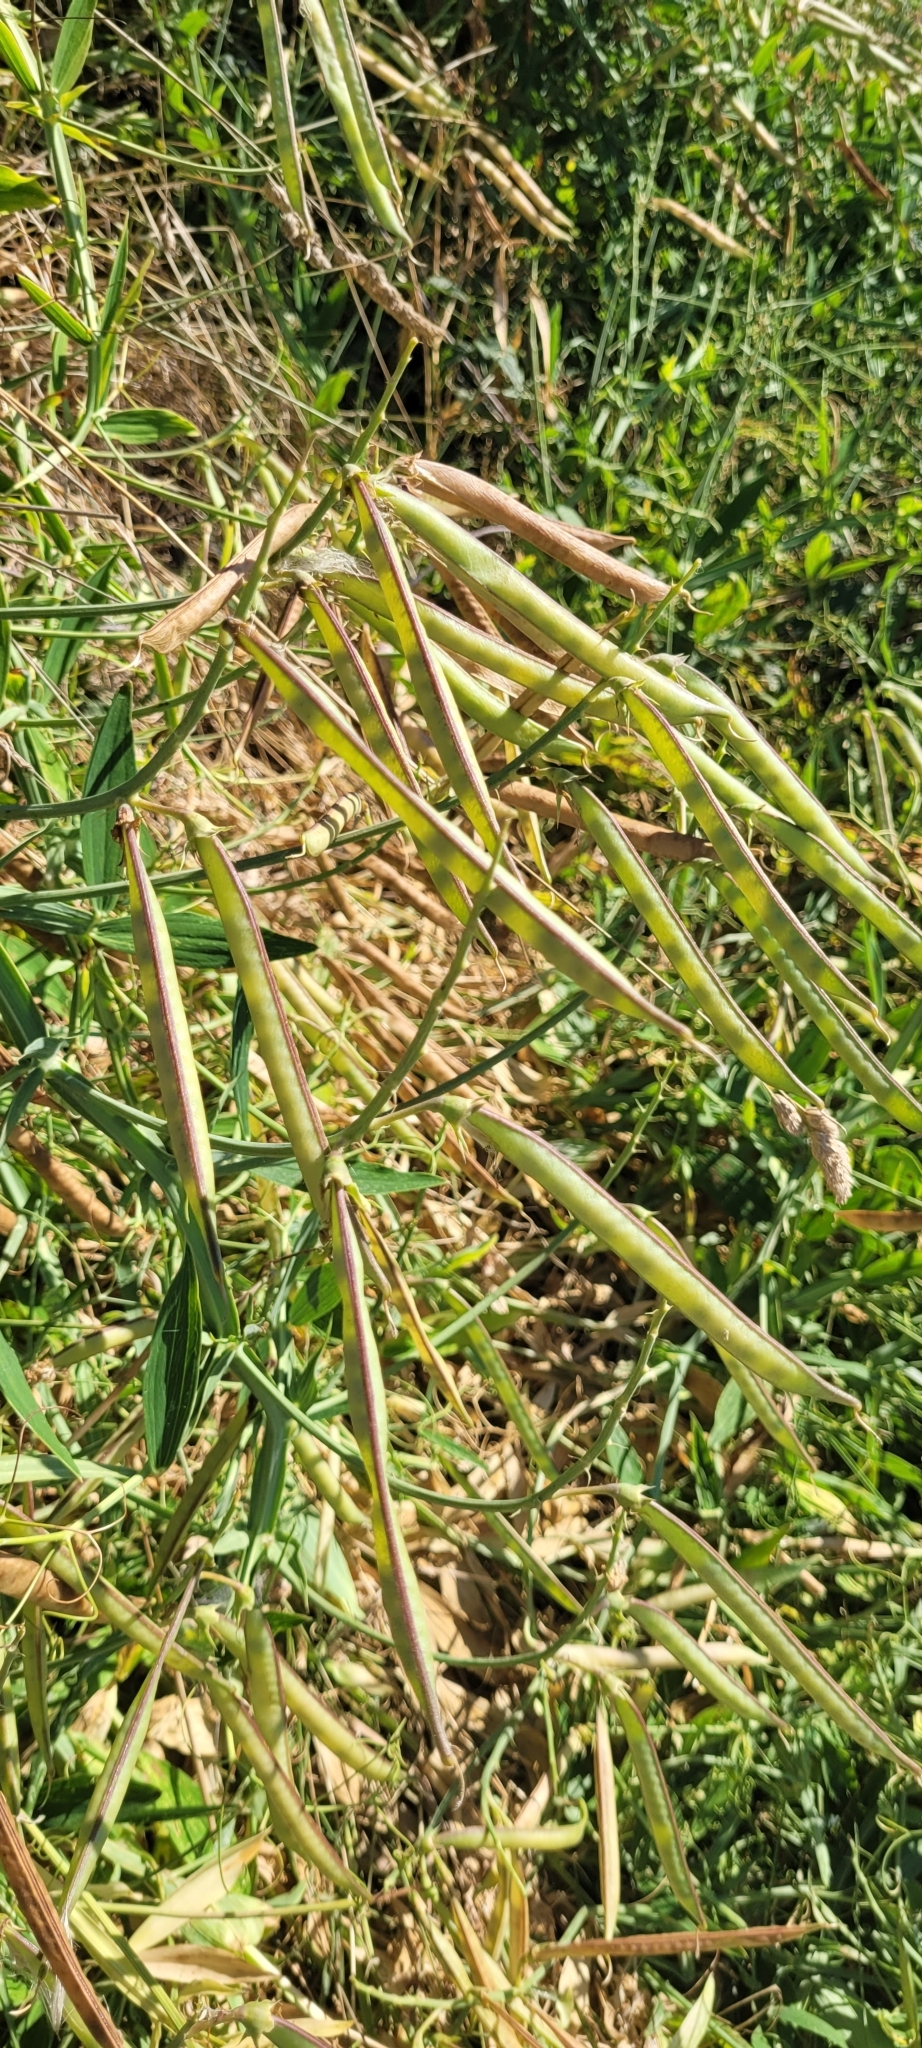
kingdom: Plantae
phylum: Tracheophyta
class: Magnoliopsida
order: Fabales
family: Fabaceae
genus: Lathyrus
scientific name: Lathyrus latifolius
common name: Perennial pea
